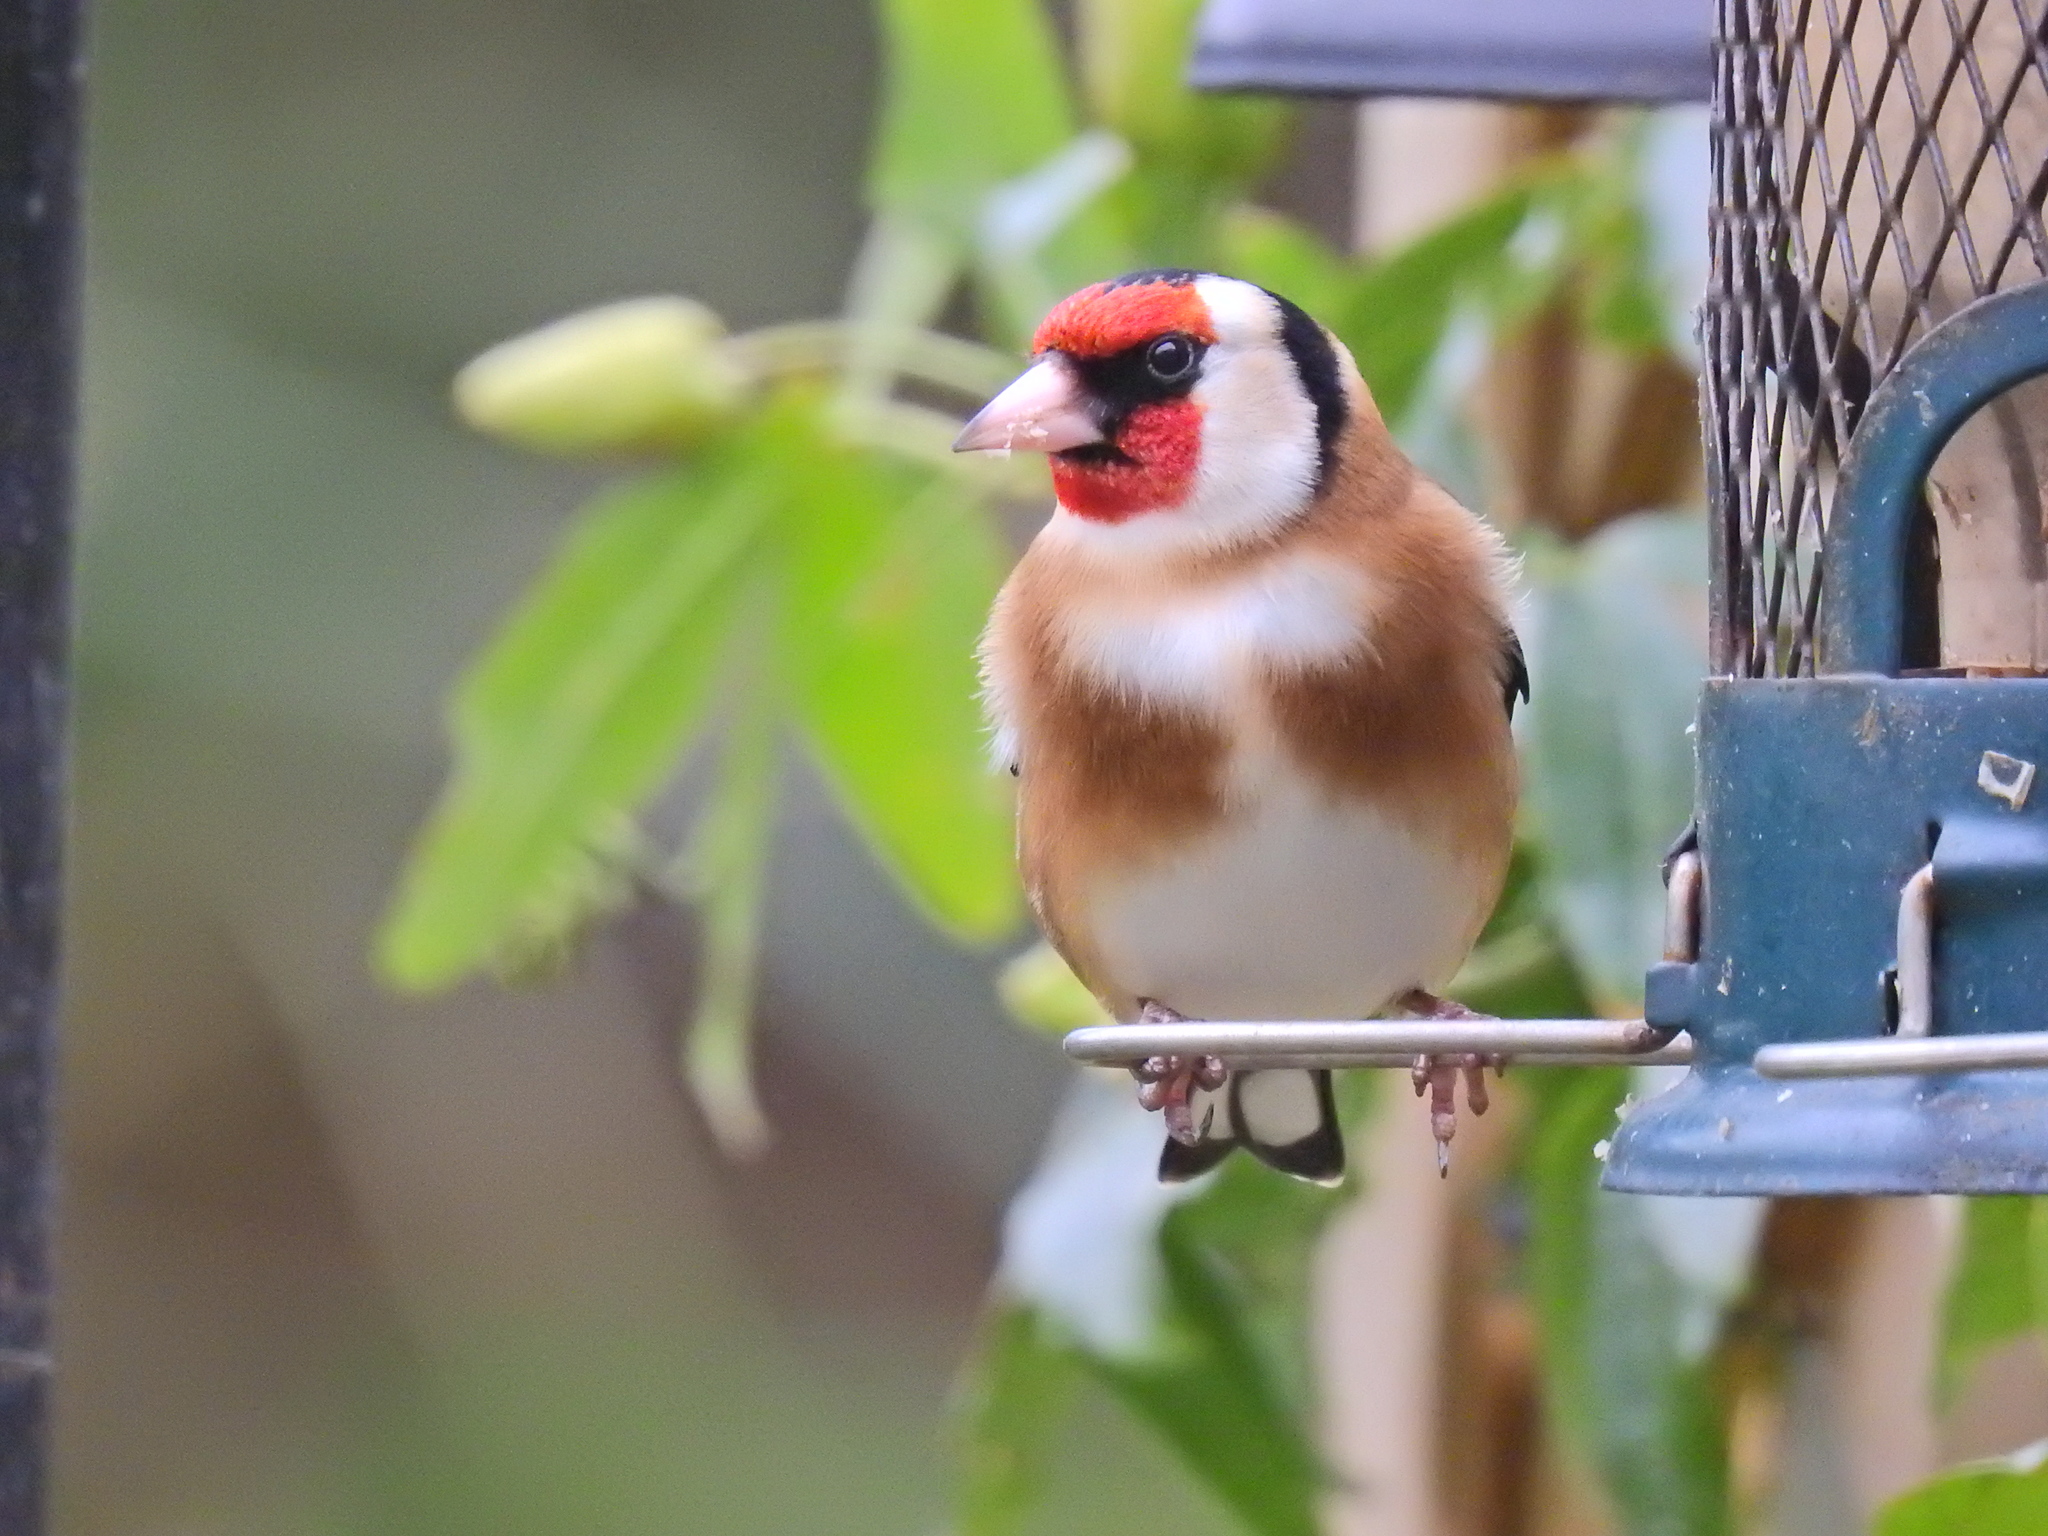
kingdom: Animalia
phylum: Chordata
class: Aves
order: Passeriformes
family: Fringillidae
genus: Carduelis
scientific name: Carduelis carduelis
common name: European goldfinch
